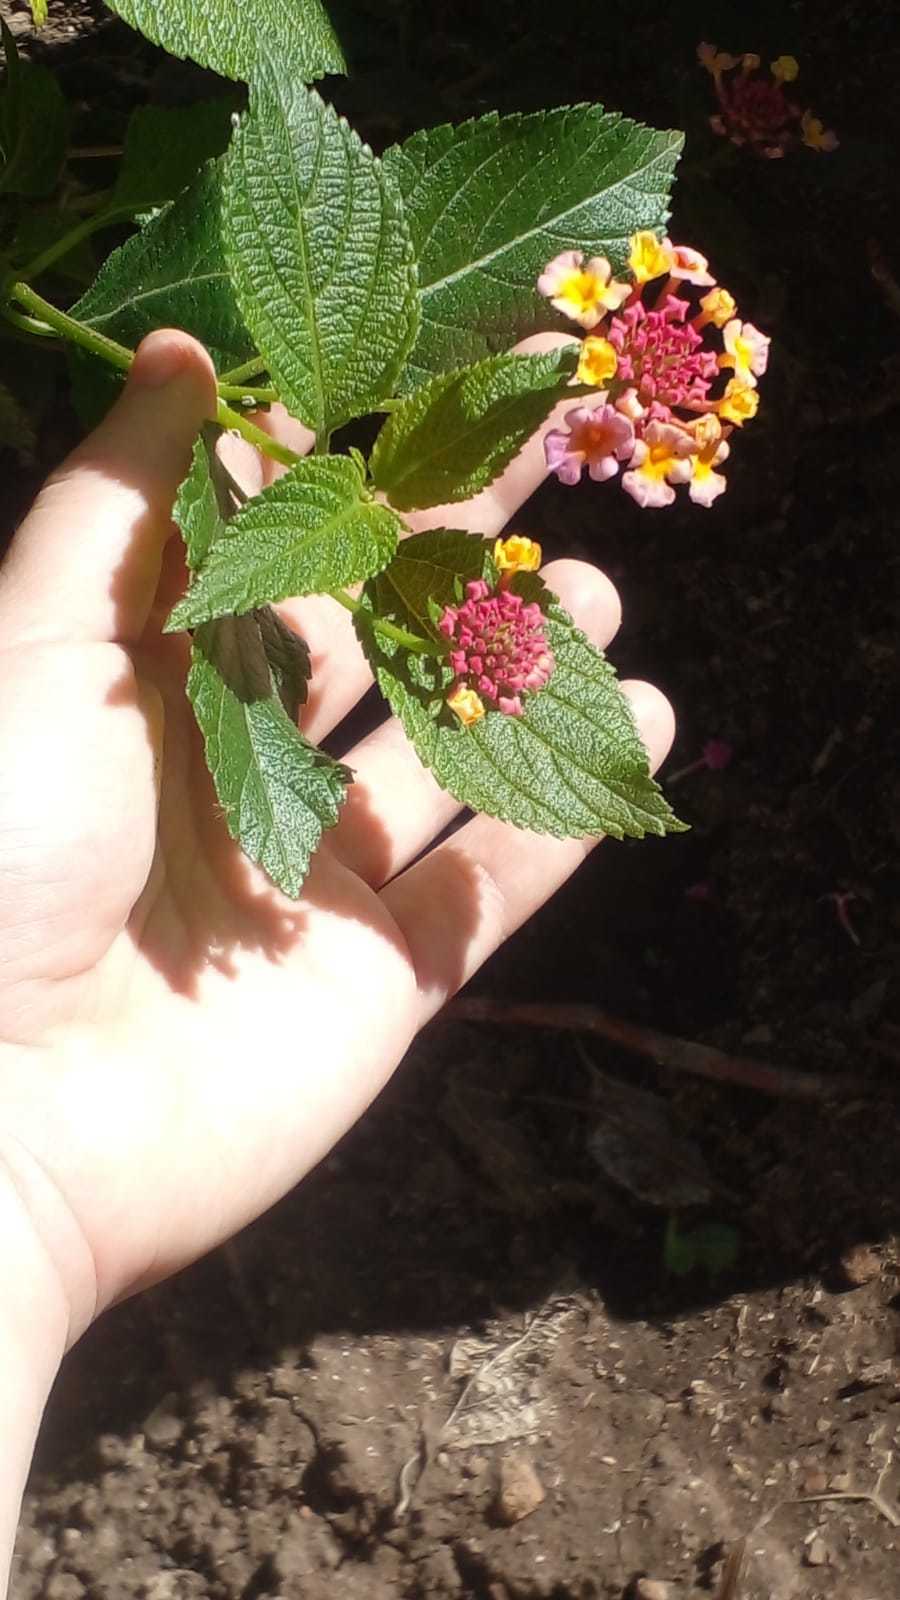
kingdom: Plantae
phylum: Tracheophyta
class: Magnoliopsida
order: Lamiales
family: Verbenaceae
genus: Lantana
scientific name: Lantana camara
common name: Lantana
